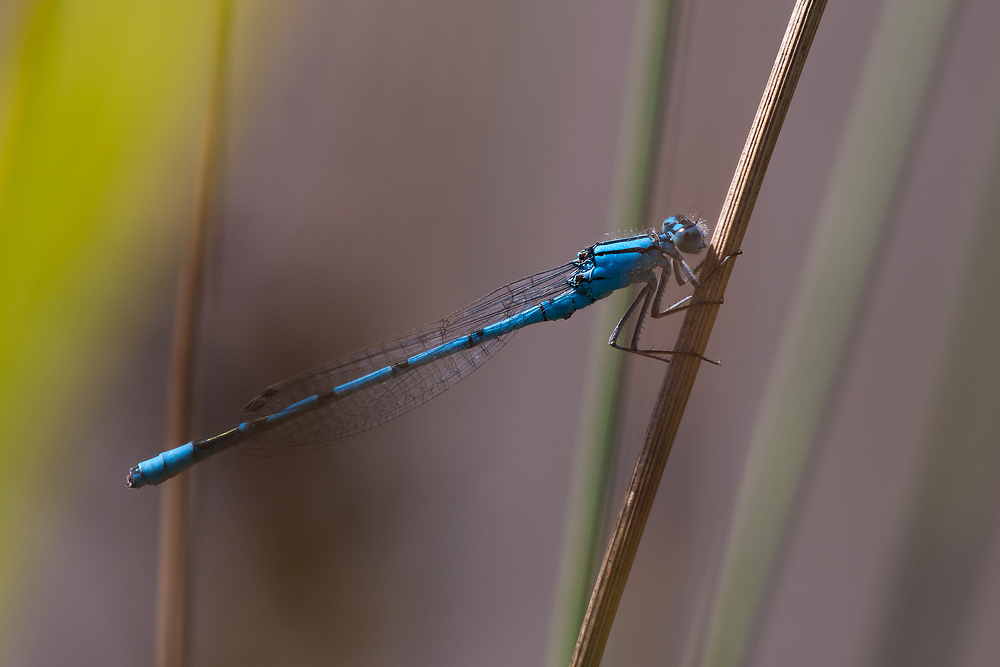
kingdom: Animalia
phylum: Arthropoda
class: Insecta
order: Odonata
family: Coenagrionidae
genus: Enallagma
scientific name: Enallagma cyathigerum
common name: Common blue damselfly
